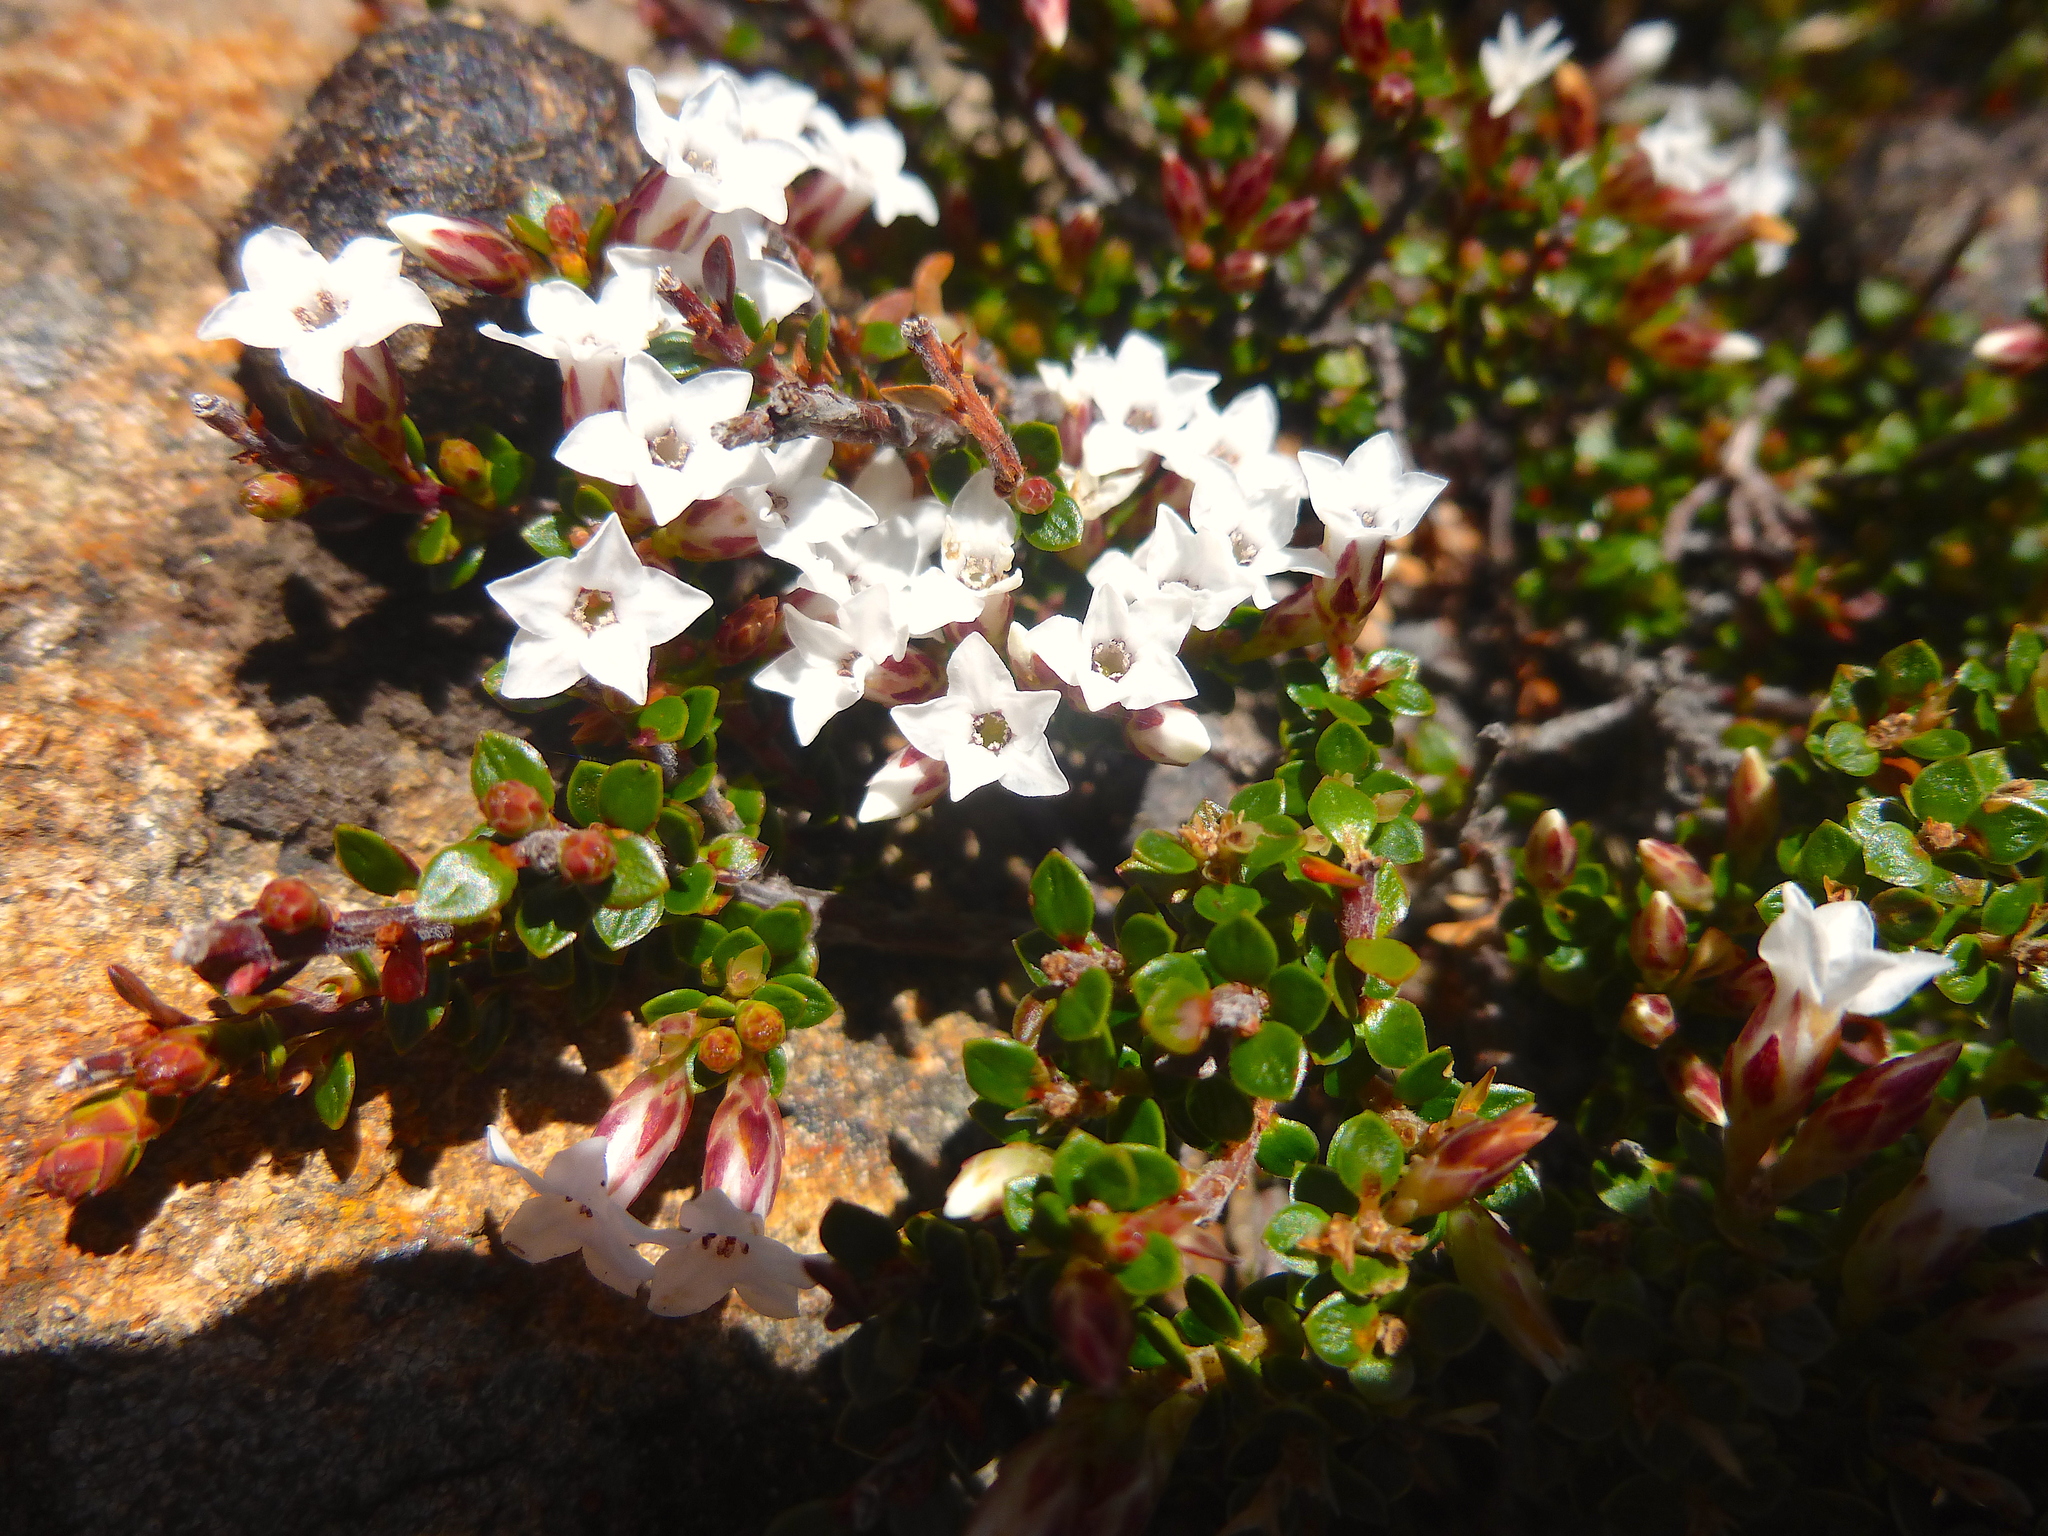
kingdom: Plantae
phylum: Tracheophyta
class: Magnoliopsida
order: Ericales
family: Ericaceae
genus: Epacris
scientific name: Epacris serpyllifolia
